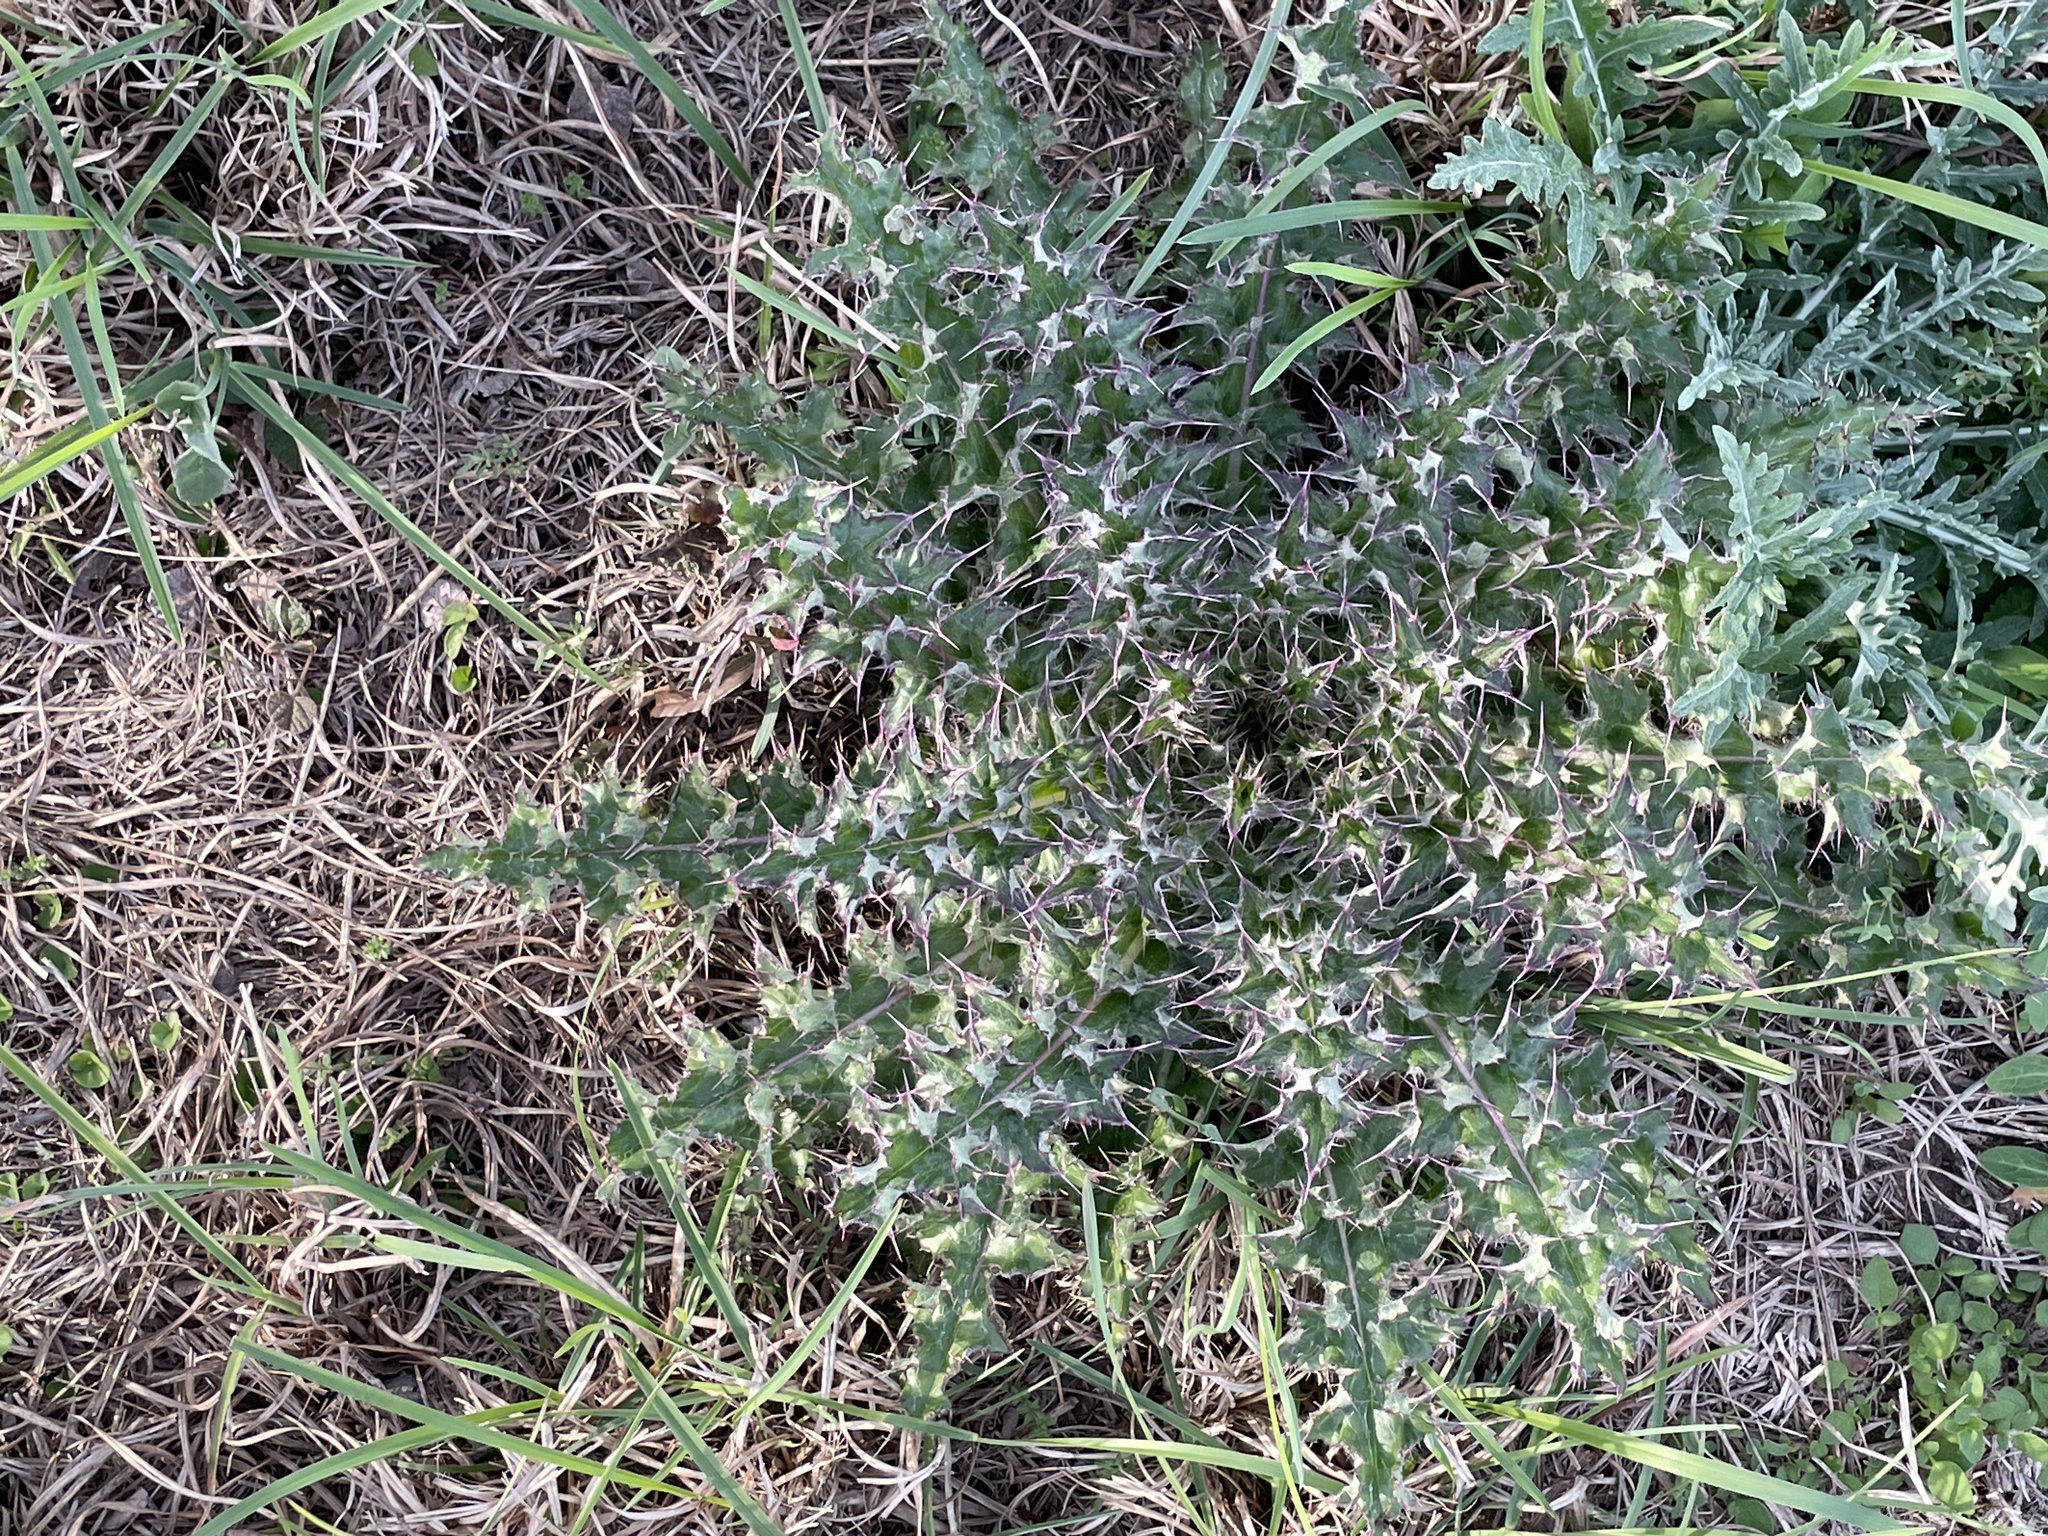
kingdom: Plantae
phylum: Tracheophyta
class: Magnoliopsida
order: Asterales
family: Asteraceae
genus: Cirsium
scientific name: Cirsium horridulum
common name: Bristly thistle
